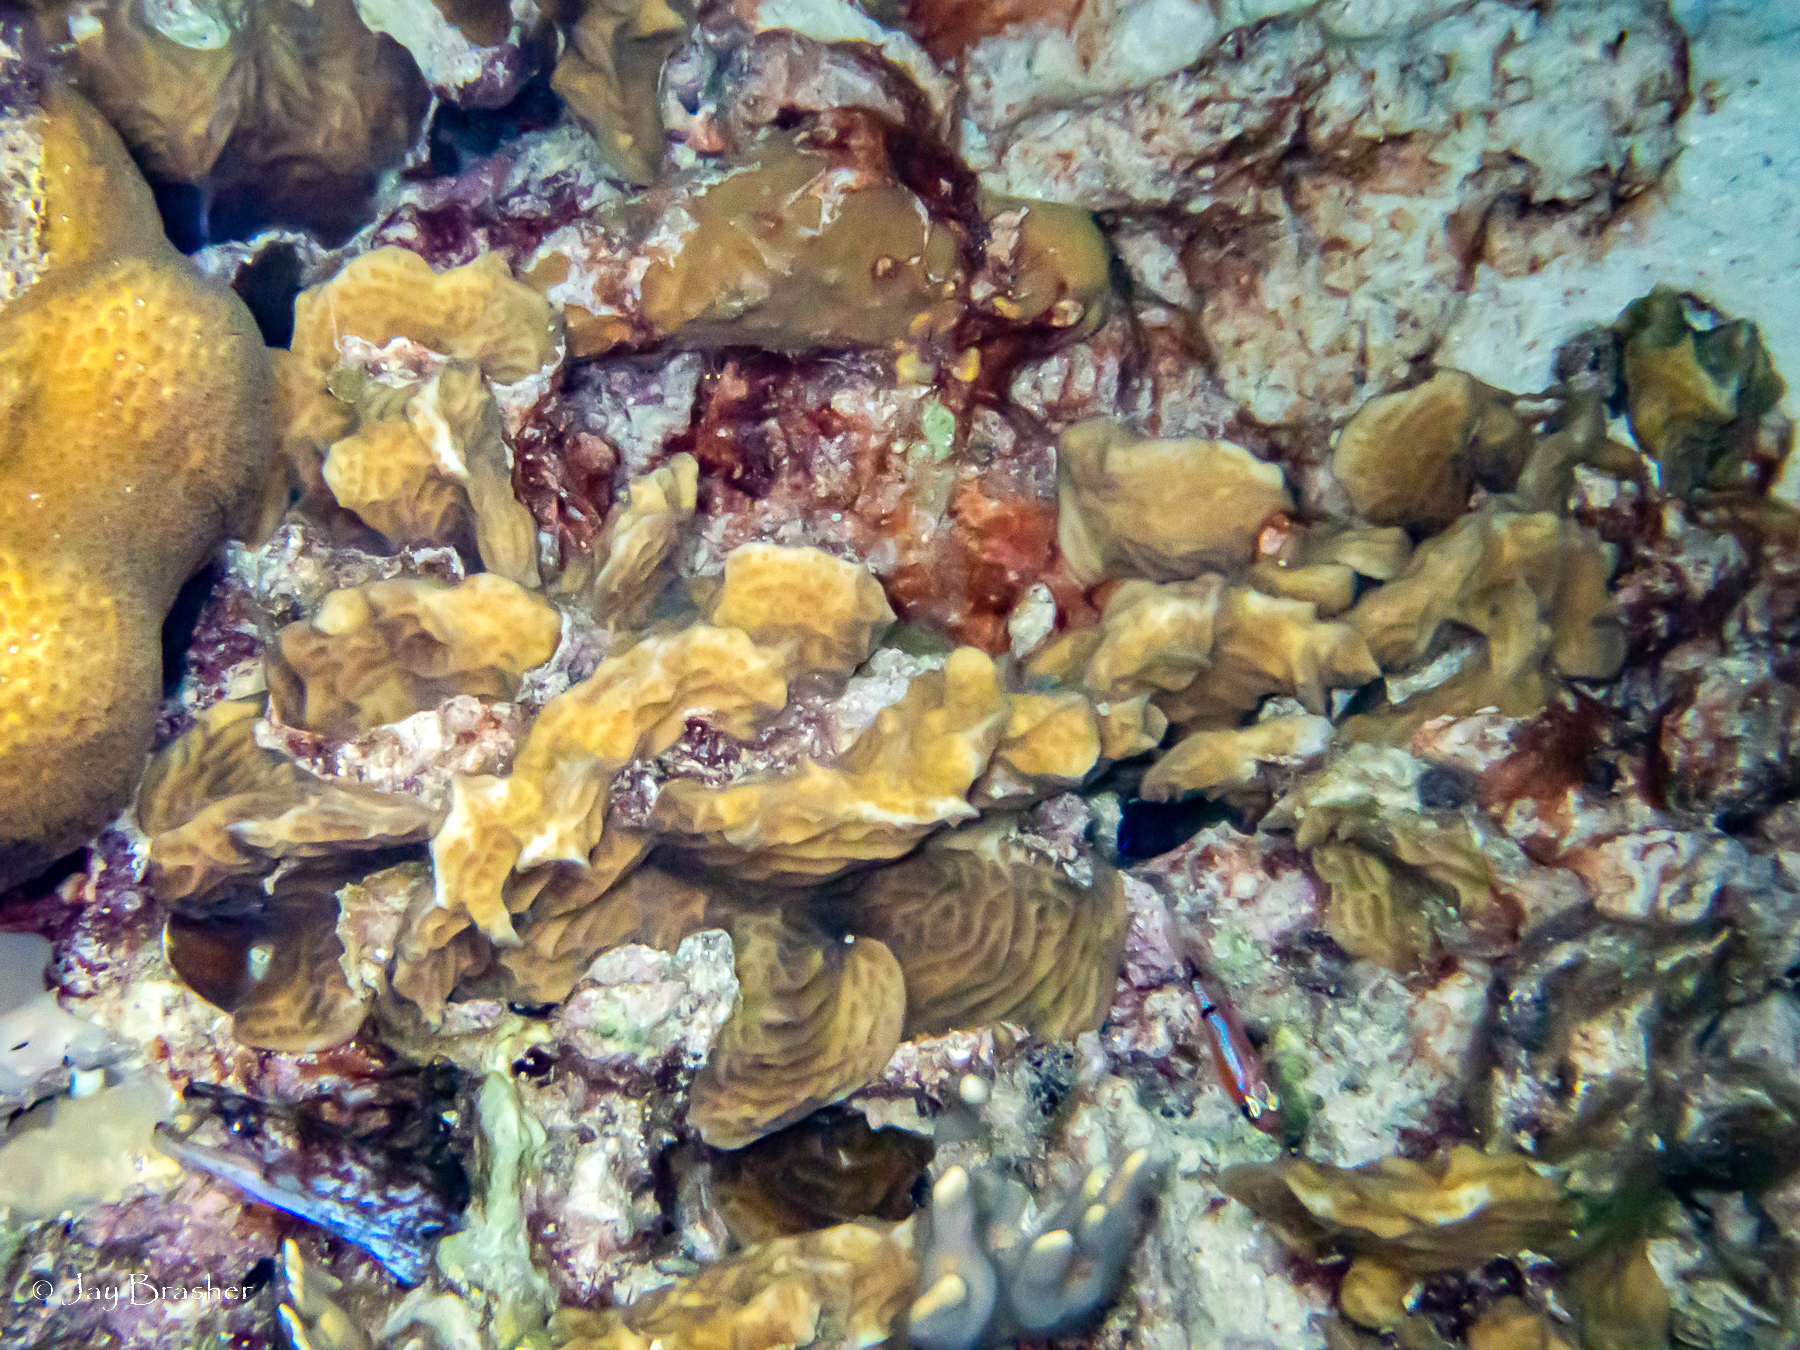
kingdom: Animalia
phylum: Cnidaria
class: Anthozoa
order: Scleractinia
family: Agariciidae
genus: Agaricia
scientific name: Agaricia agaricites
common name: Lettuce coral
